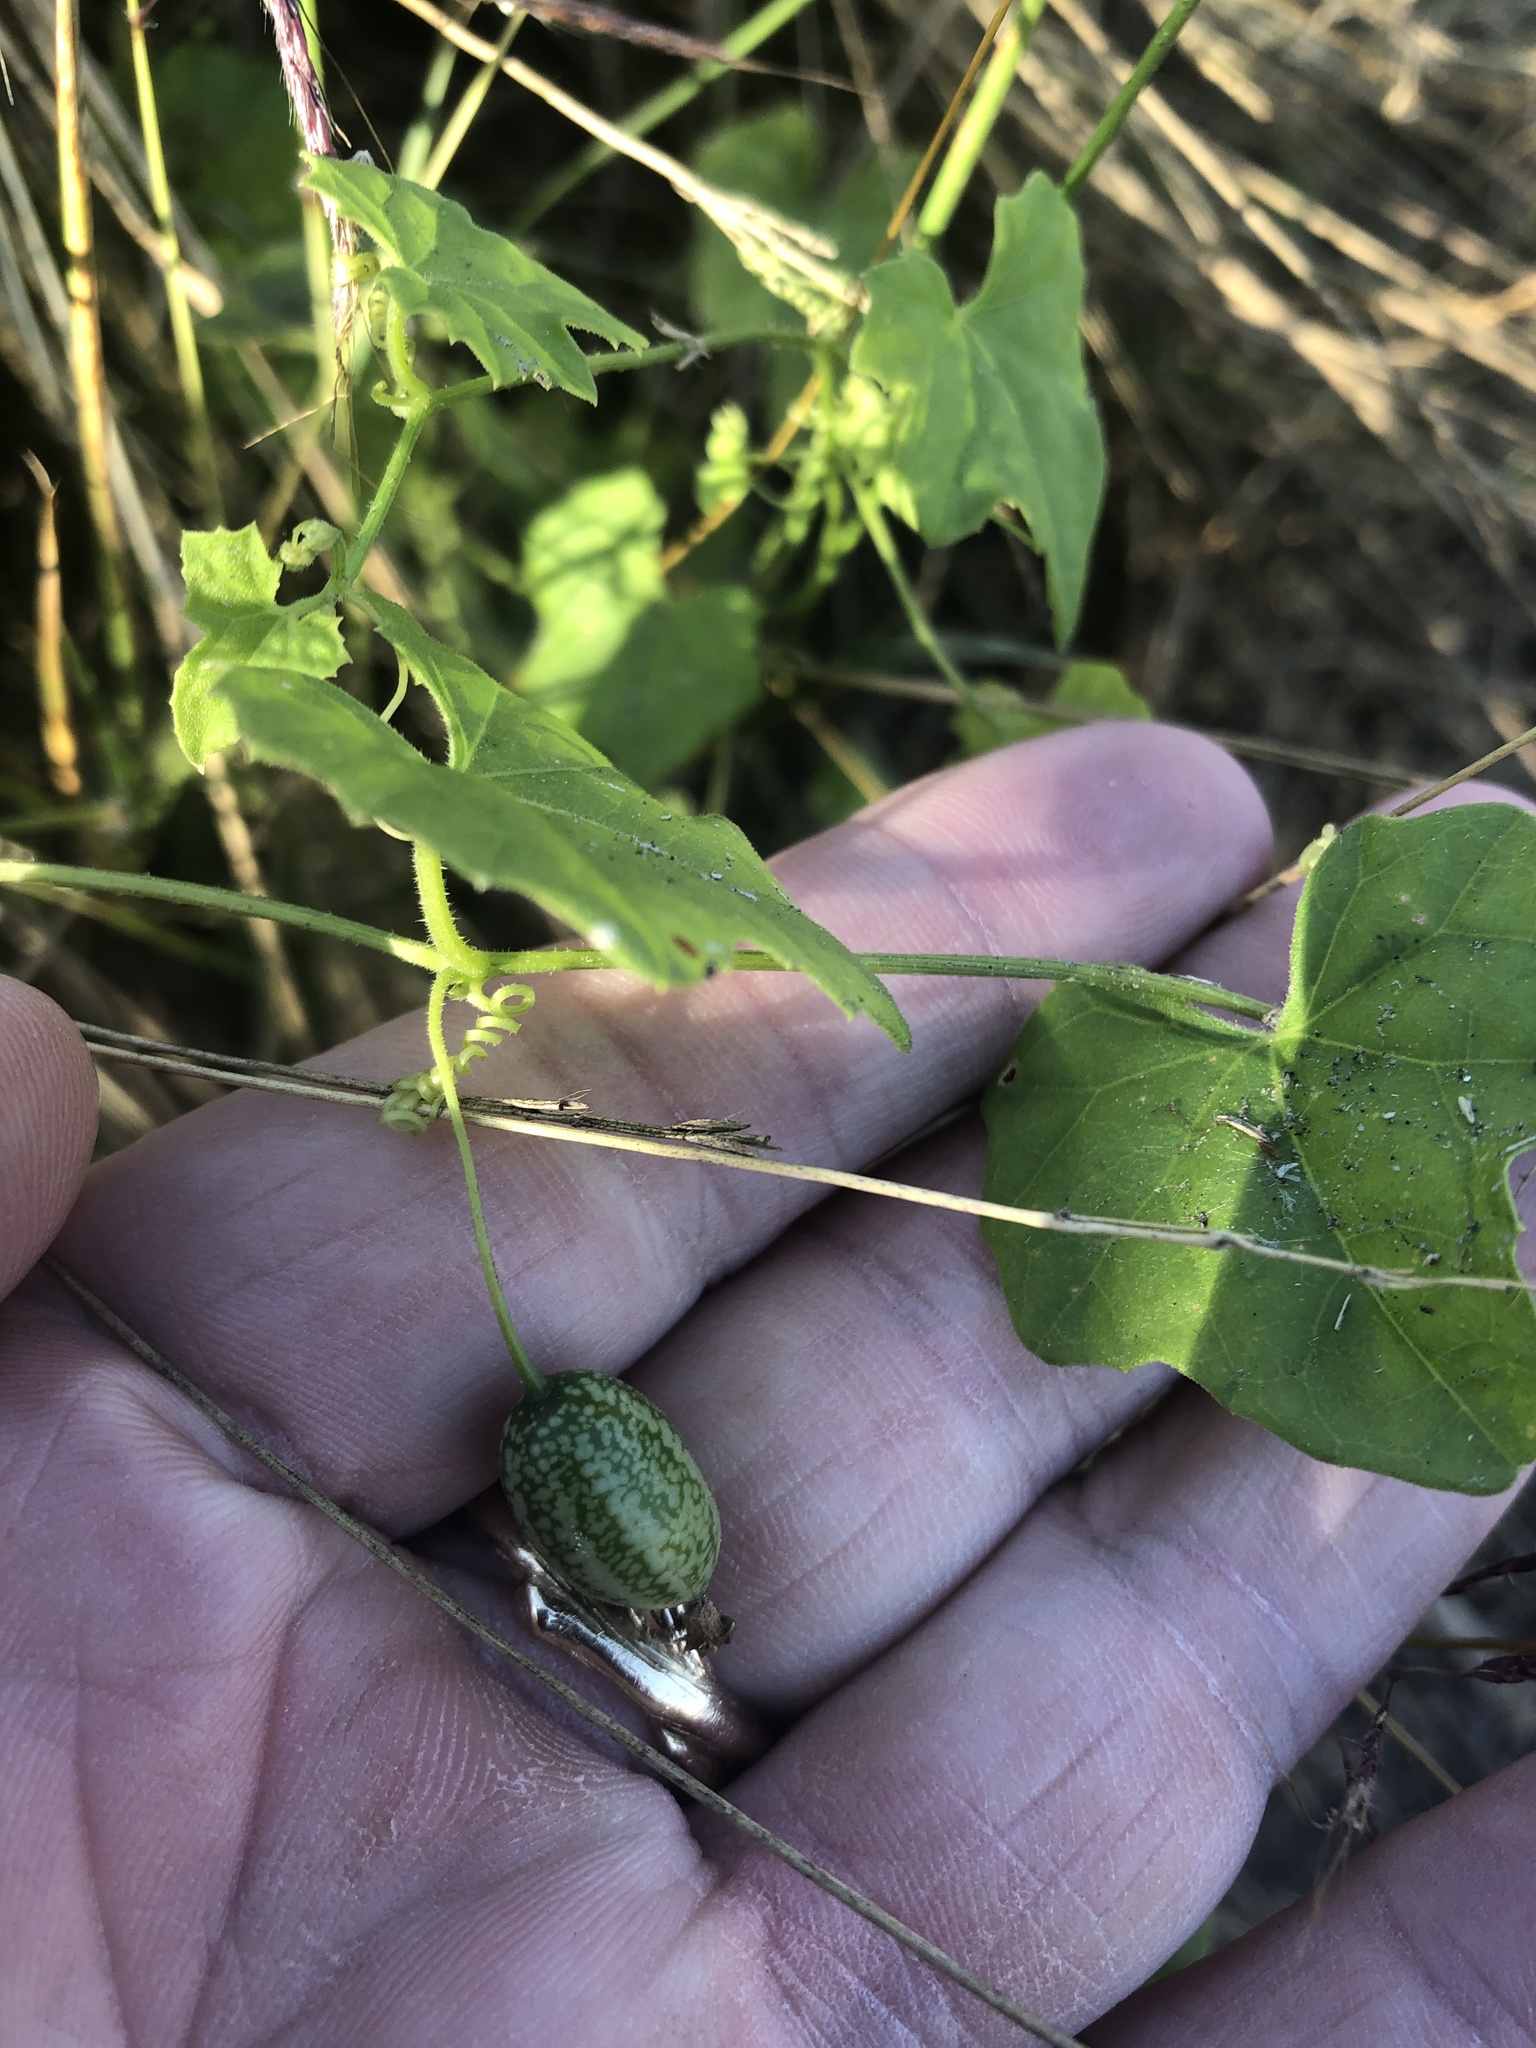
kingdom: Plantae
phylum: Tracheophyta
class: Magnoliopsida
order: Cucurbitales
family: Cucurbitaceae
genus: Melothria
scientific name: Melothria pendula
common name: Creeping-cucumber
